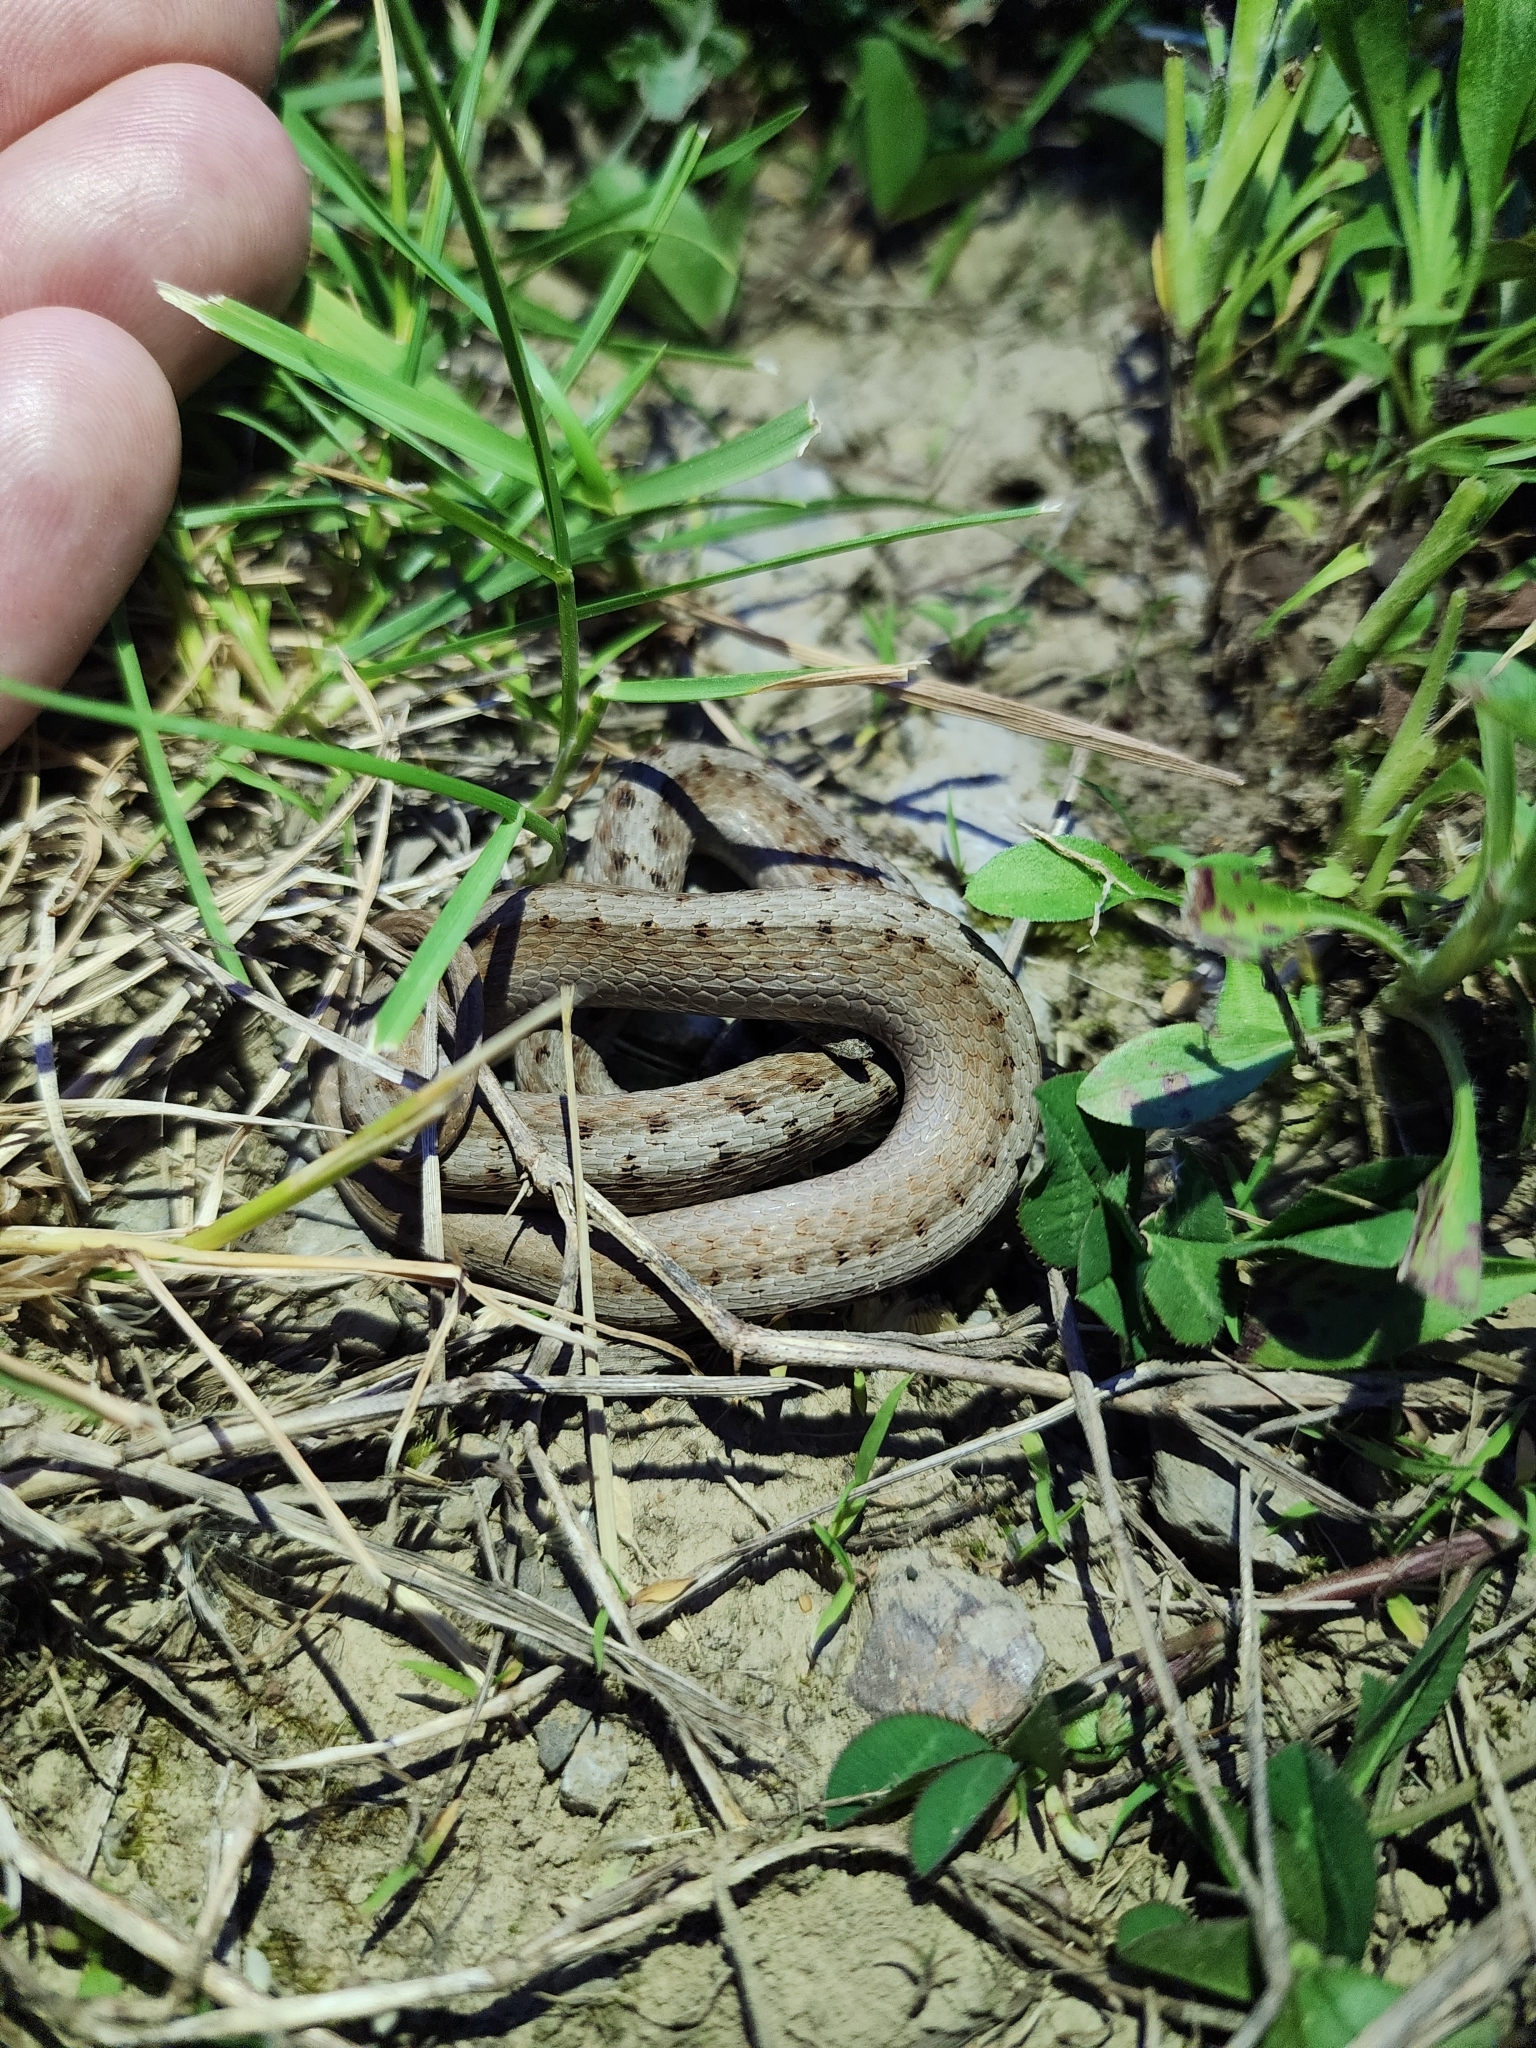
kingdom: Animalia
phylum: Chordata
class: Squamata
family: Colubridae
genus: Storeria
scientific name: Storeria dekayi
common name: (dekay’s) brown snake
